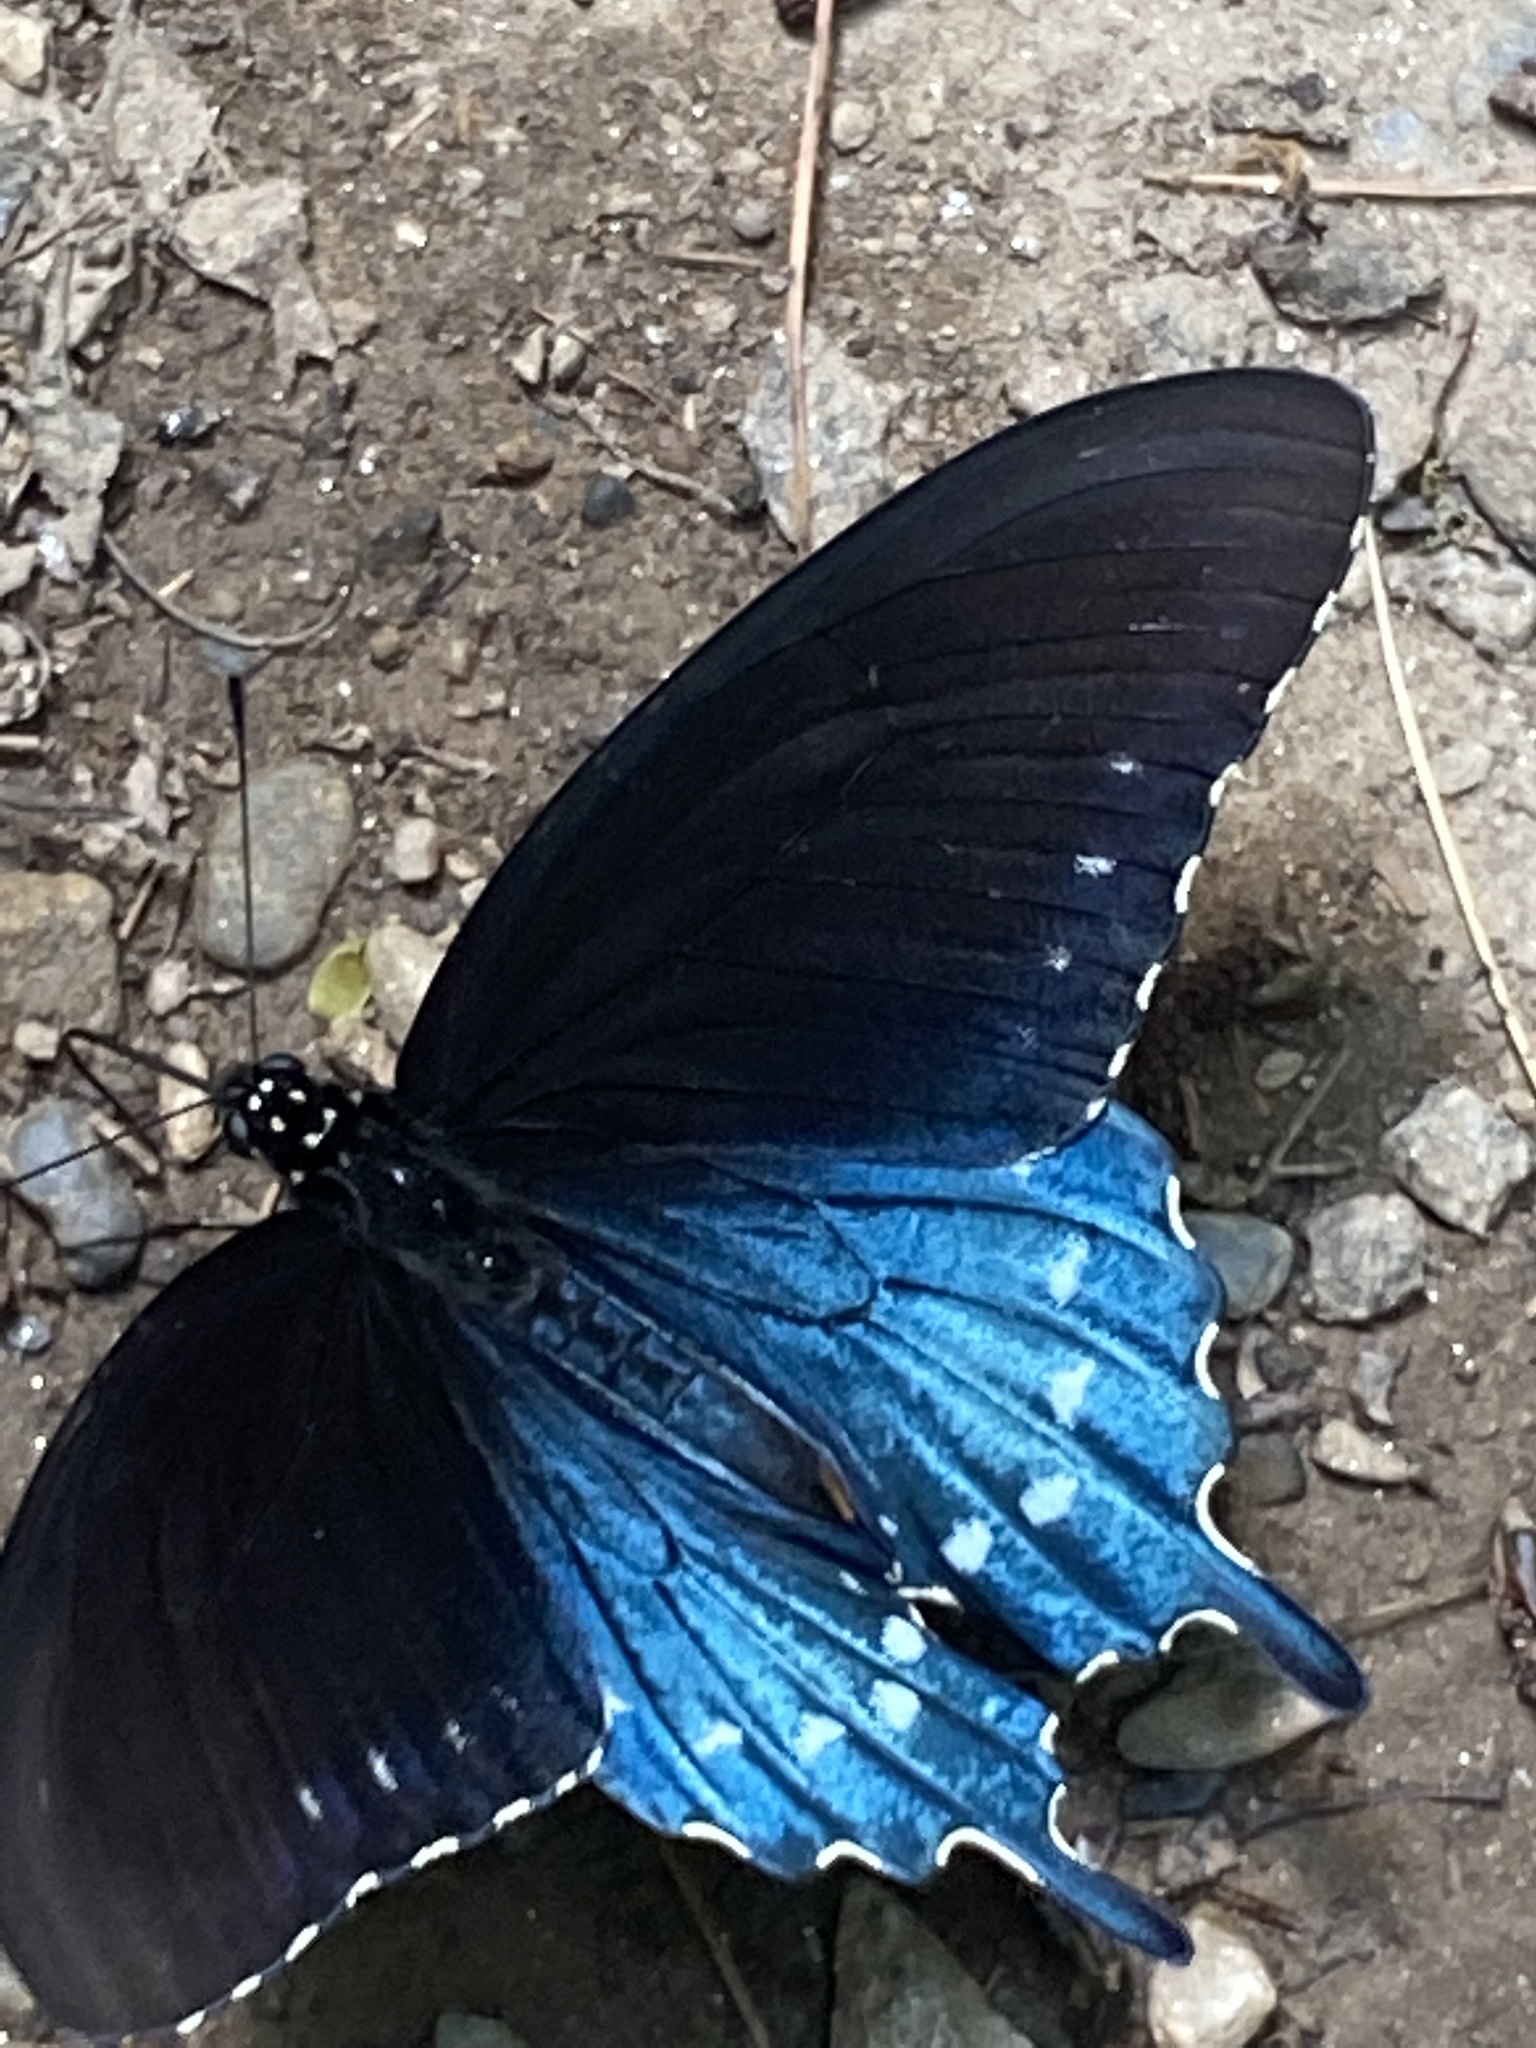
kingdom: Animalia
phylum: Arthropoda
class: Insecta
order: Lepidoptera
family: Papilionidae
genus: Battus
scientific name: Battus philenor
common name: Pipevine swallowtail
